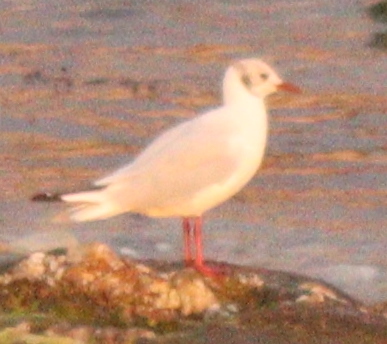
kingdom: Animalia
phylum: Chordata
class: Aves
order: Charadriiformes
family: Laridae
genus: Chroicocephalus
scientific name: Chroicocephalus ridibundus
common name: Black-headed gull
